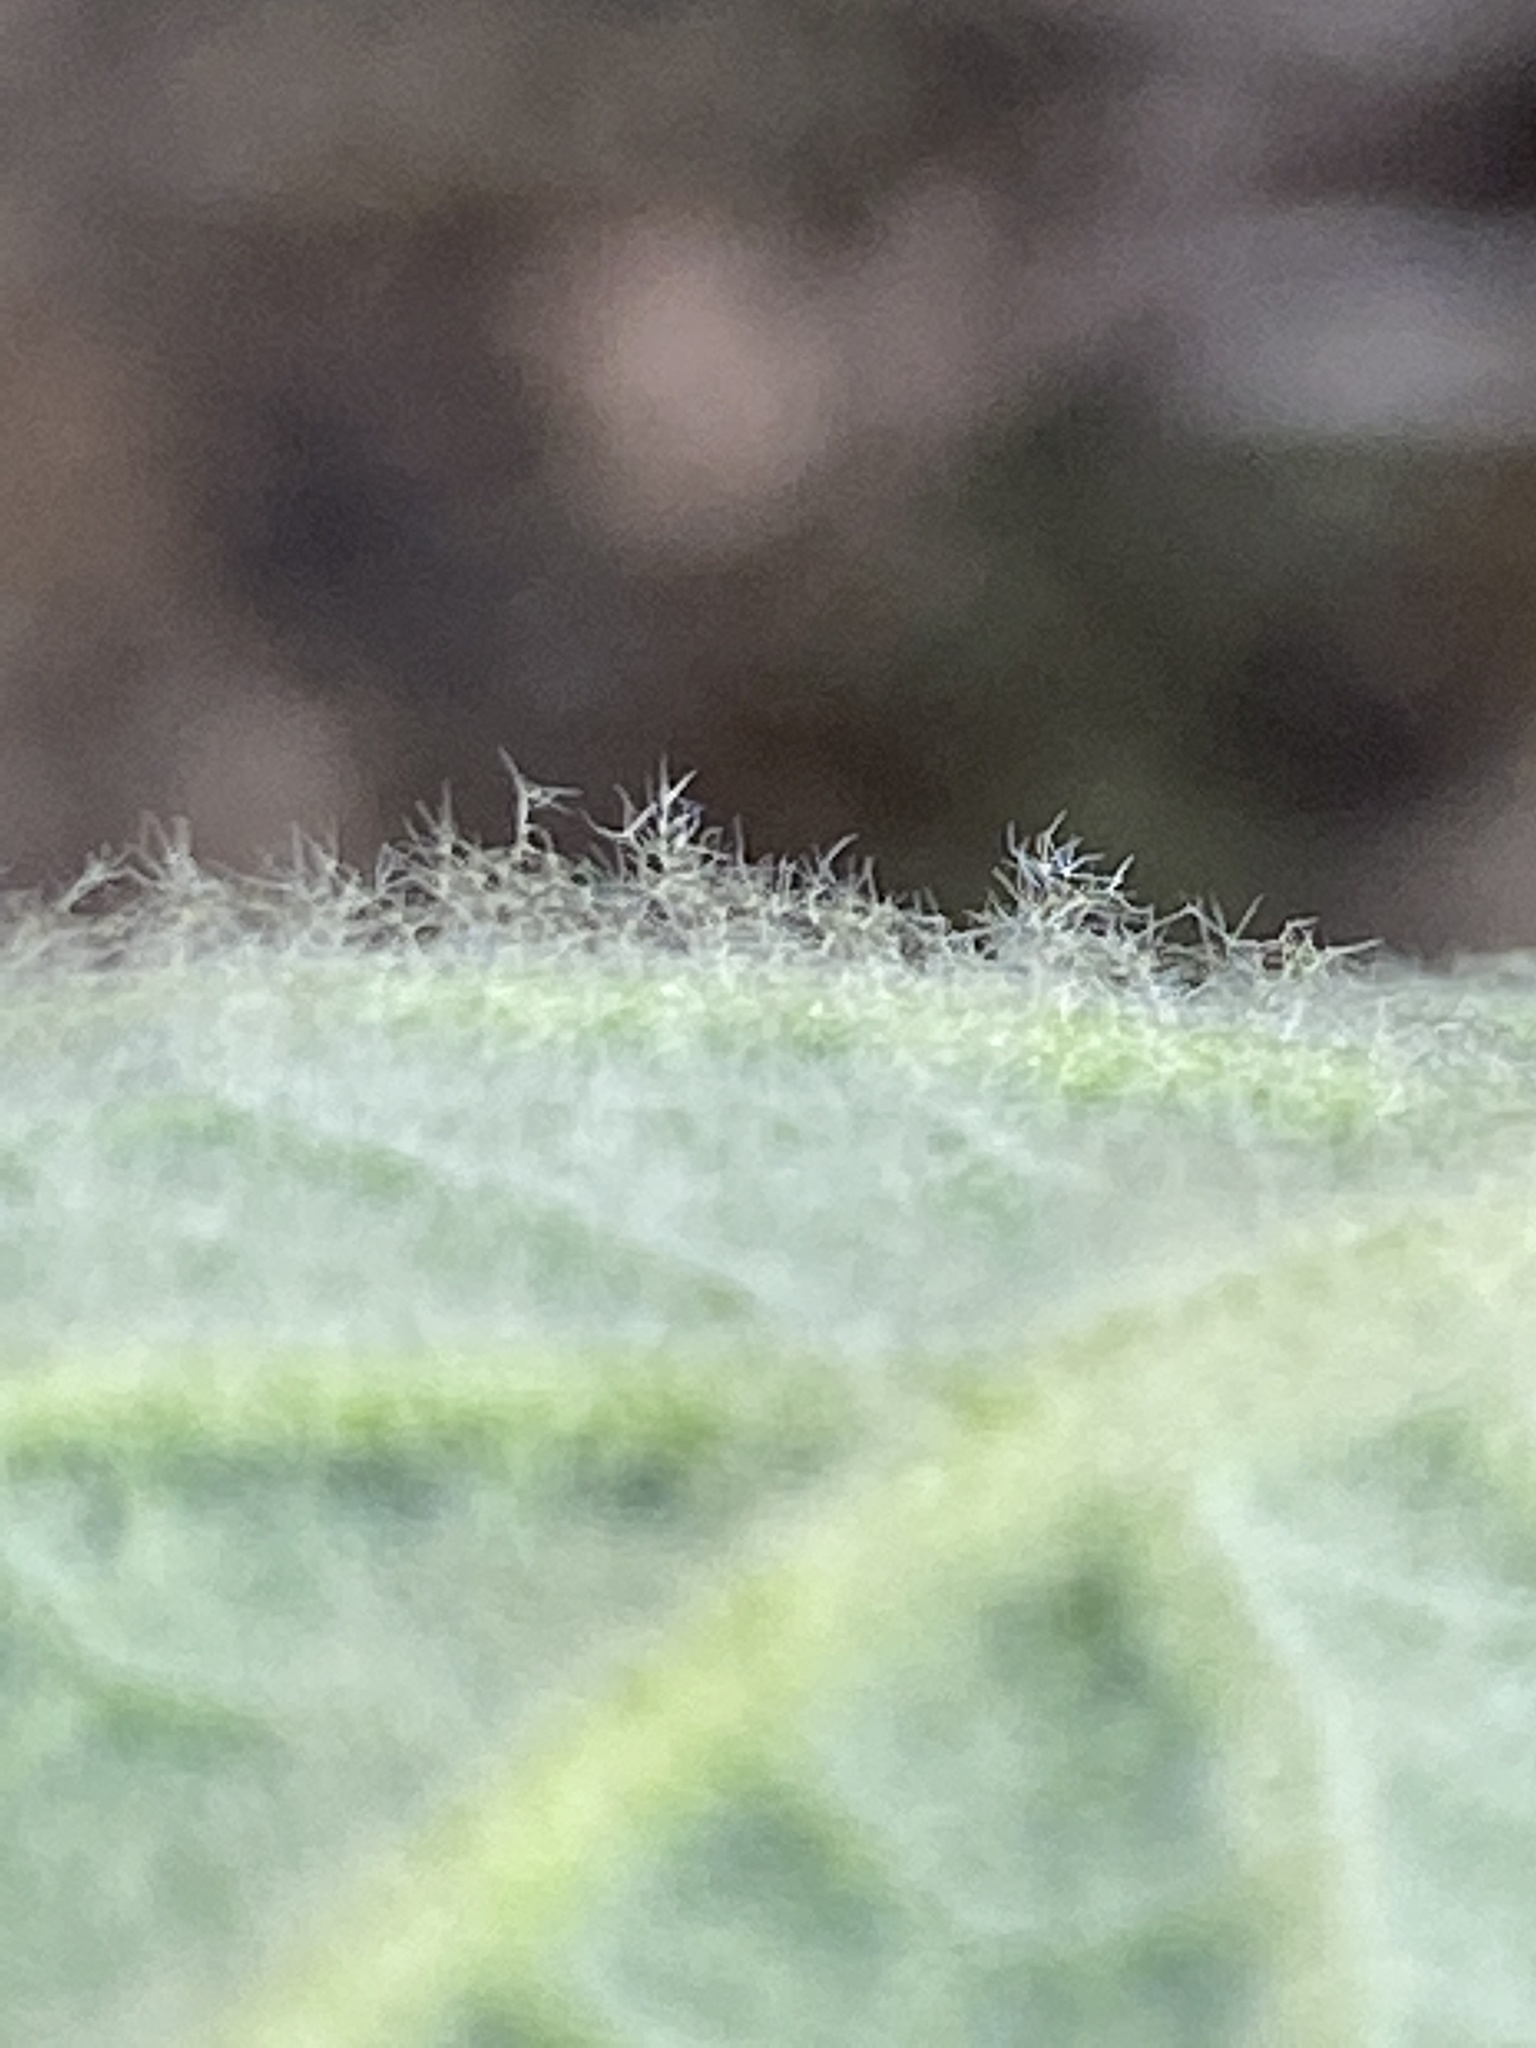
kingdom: Plantae
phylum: Tracheophyta
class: Magnoliopsida
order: Lamiales
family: Scrophulariaceae
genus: Verbascum
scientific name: Verbascum thapsus
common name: Common mullein
